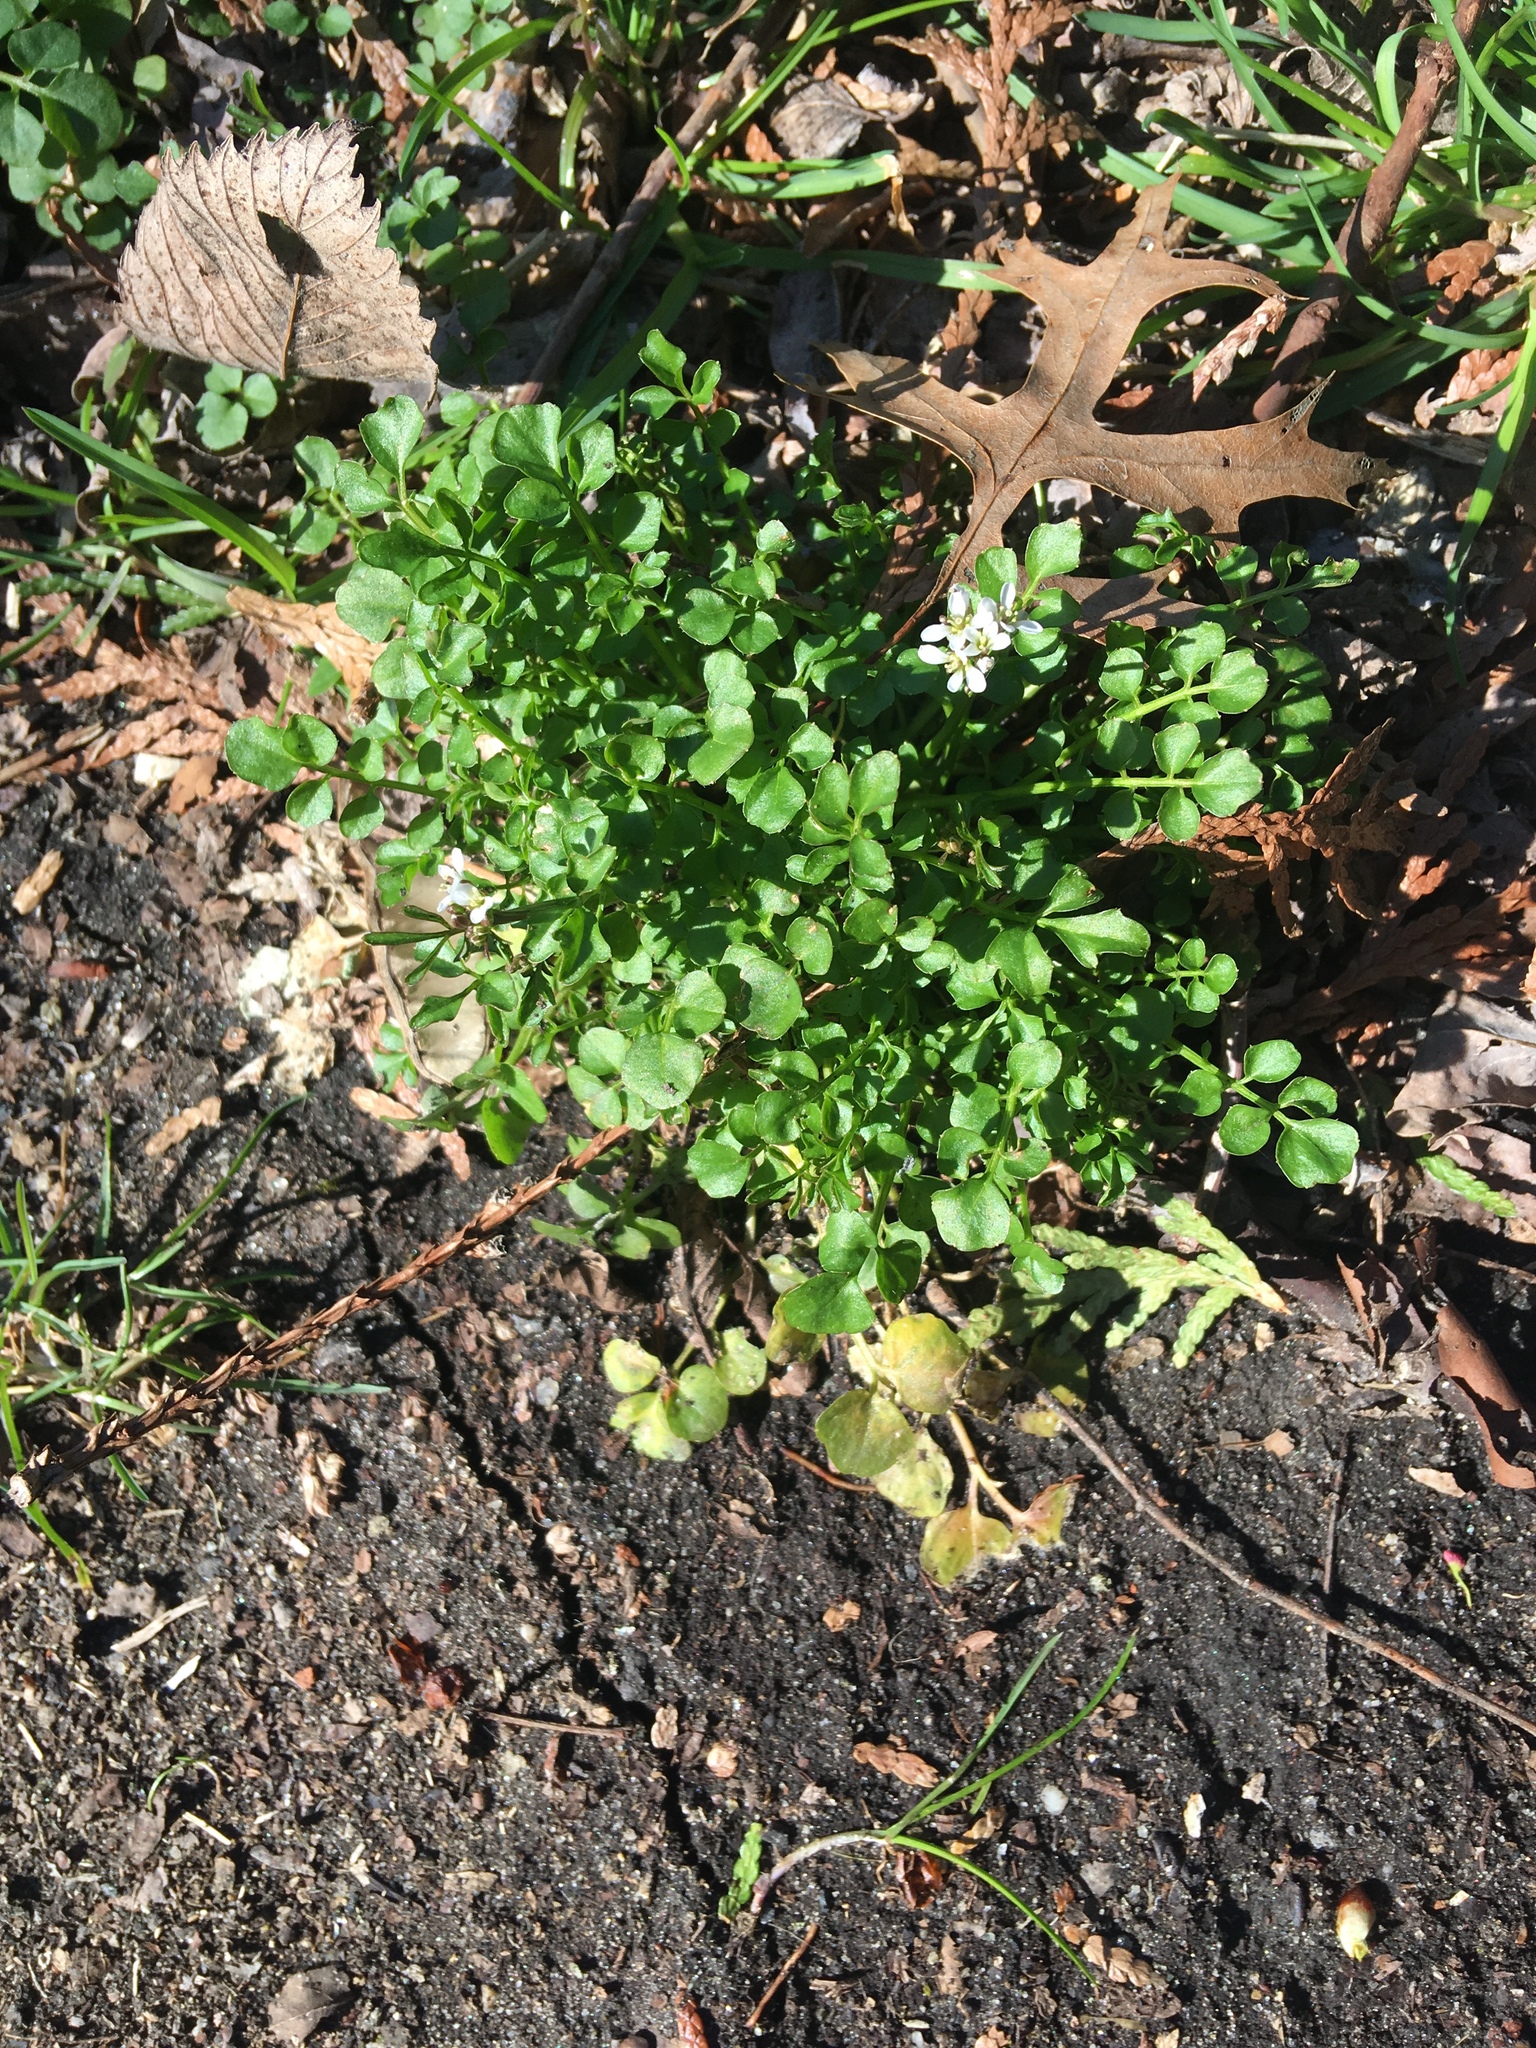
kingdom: Plantae
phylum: Tracheophyta
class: Magnoliopsida
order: Brassicales
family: Brassicaceae
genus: Cardamine
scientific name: Cardamine hirsuta
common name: Hairy bittercress
